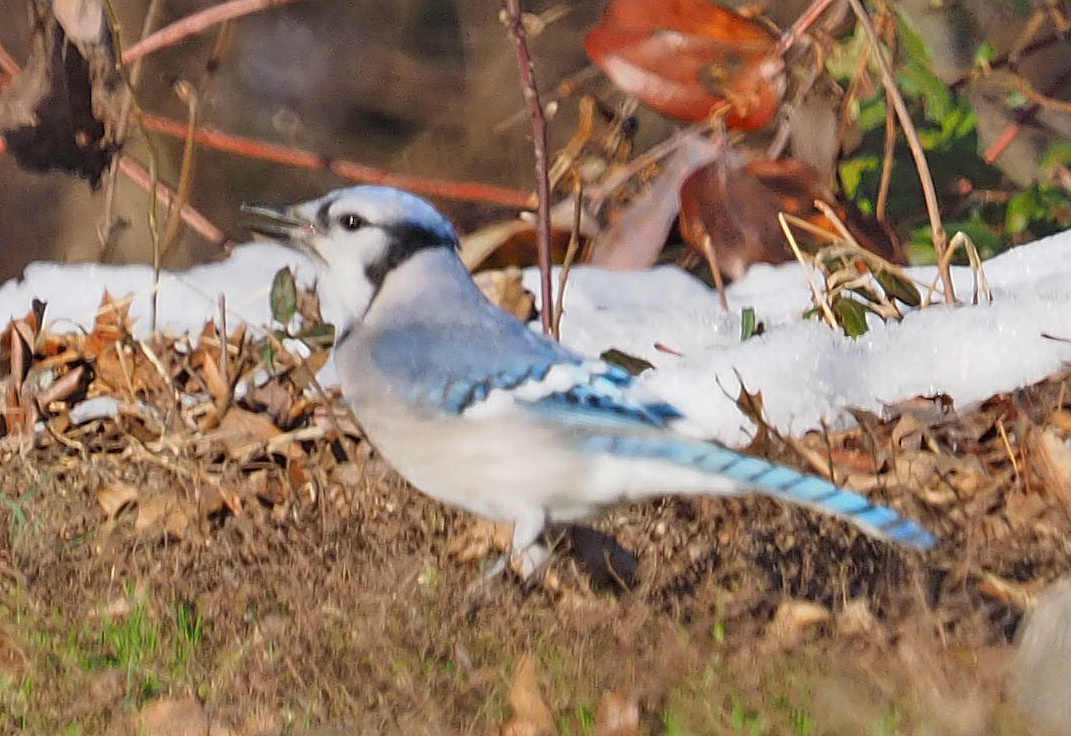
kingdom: Animalia
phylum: Chordata
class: Aves
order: Passeriformes
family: Corvidae
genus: Cyanocitta
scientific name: Cyanocitta cristata
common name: Blue jay
